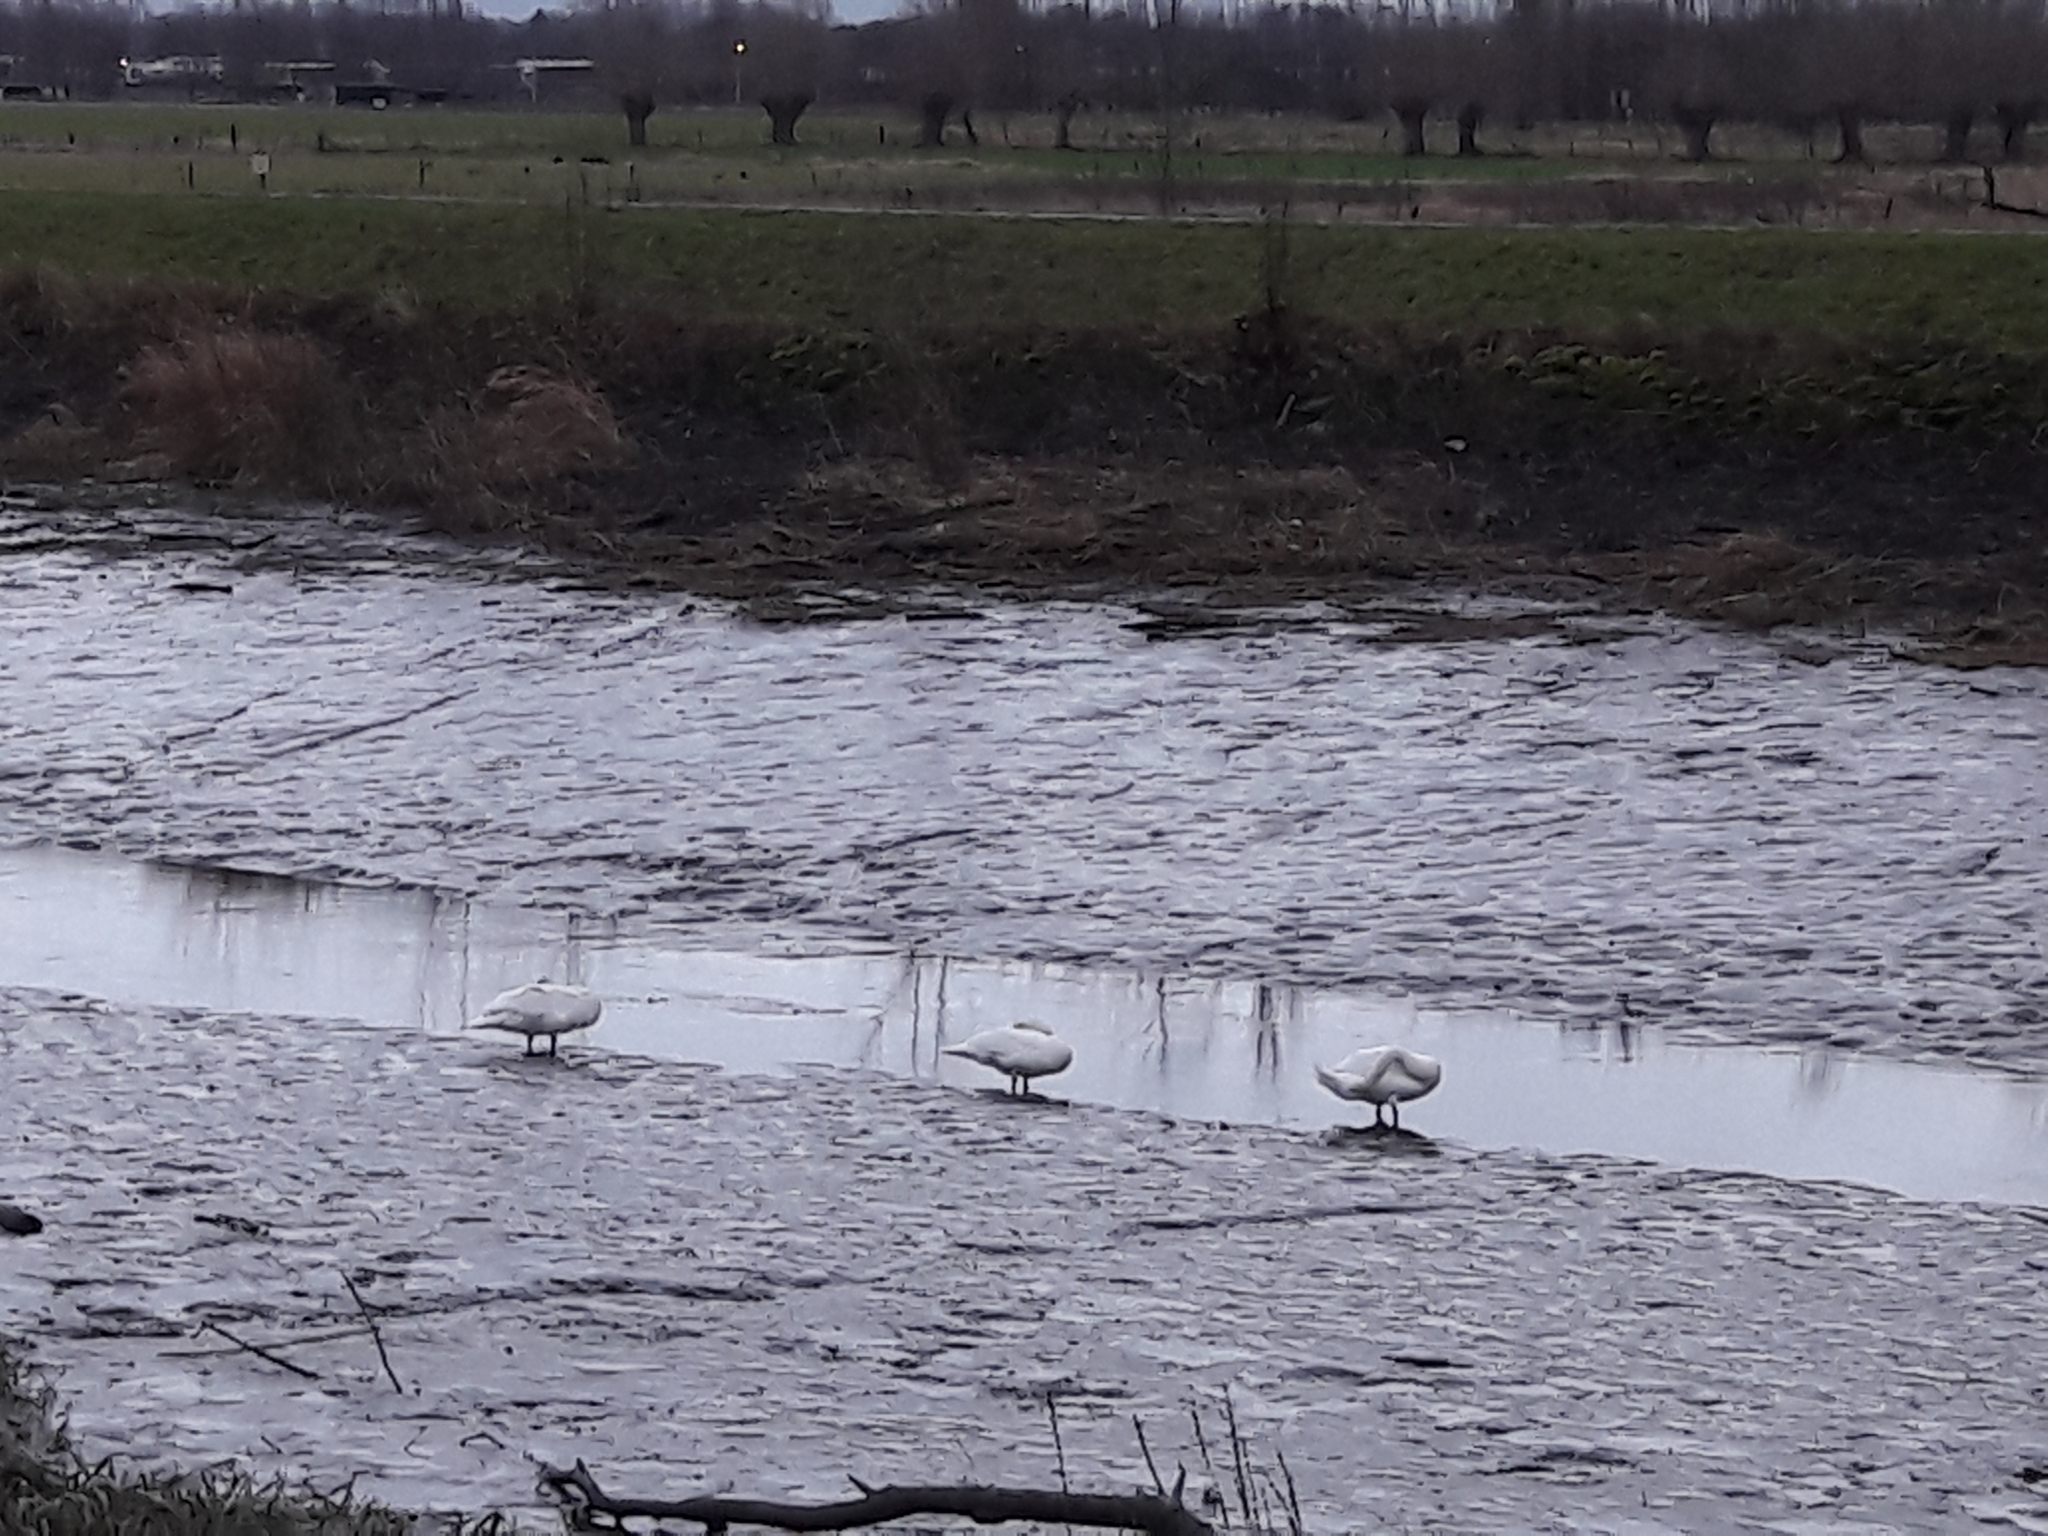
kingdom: Animalia
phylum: Chordata
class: Aves
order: Anseriformes
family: Anatidae
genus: Cygnus
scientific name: Cygnus olor
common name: Mute swan
